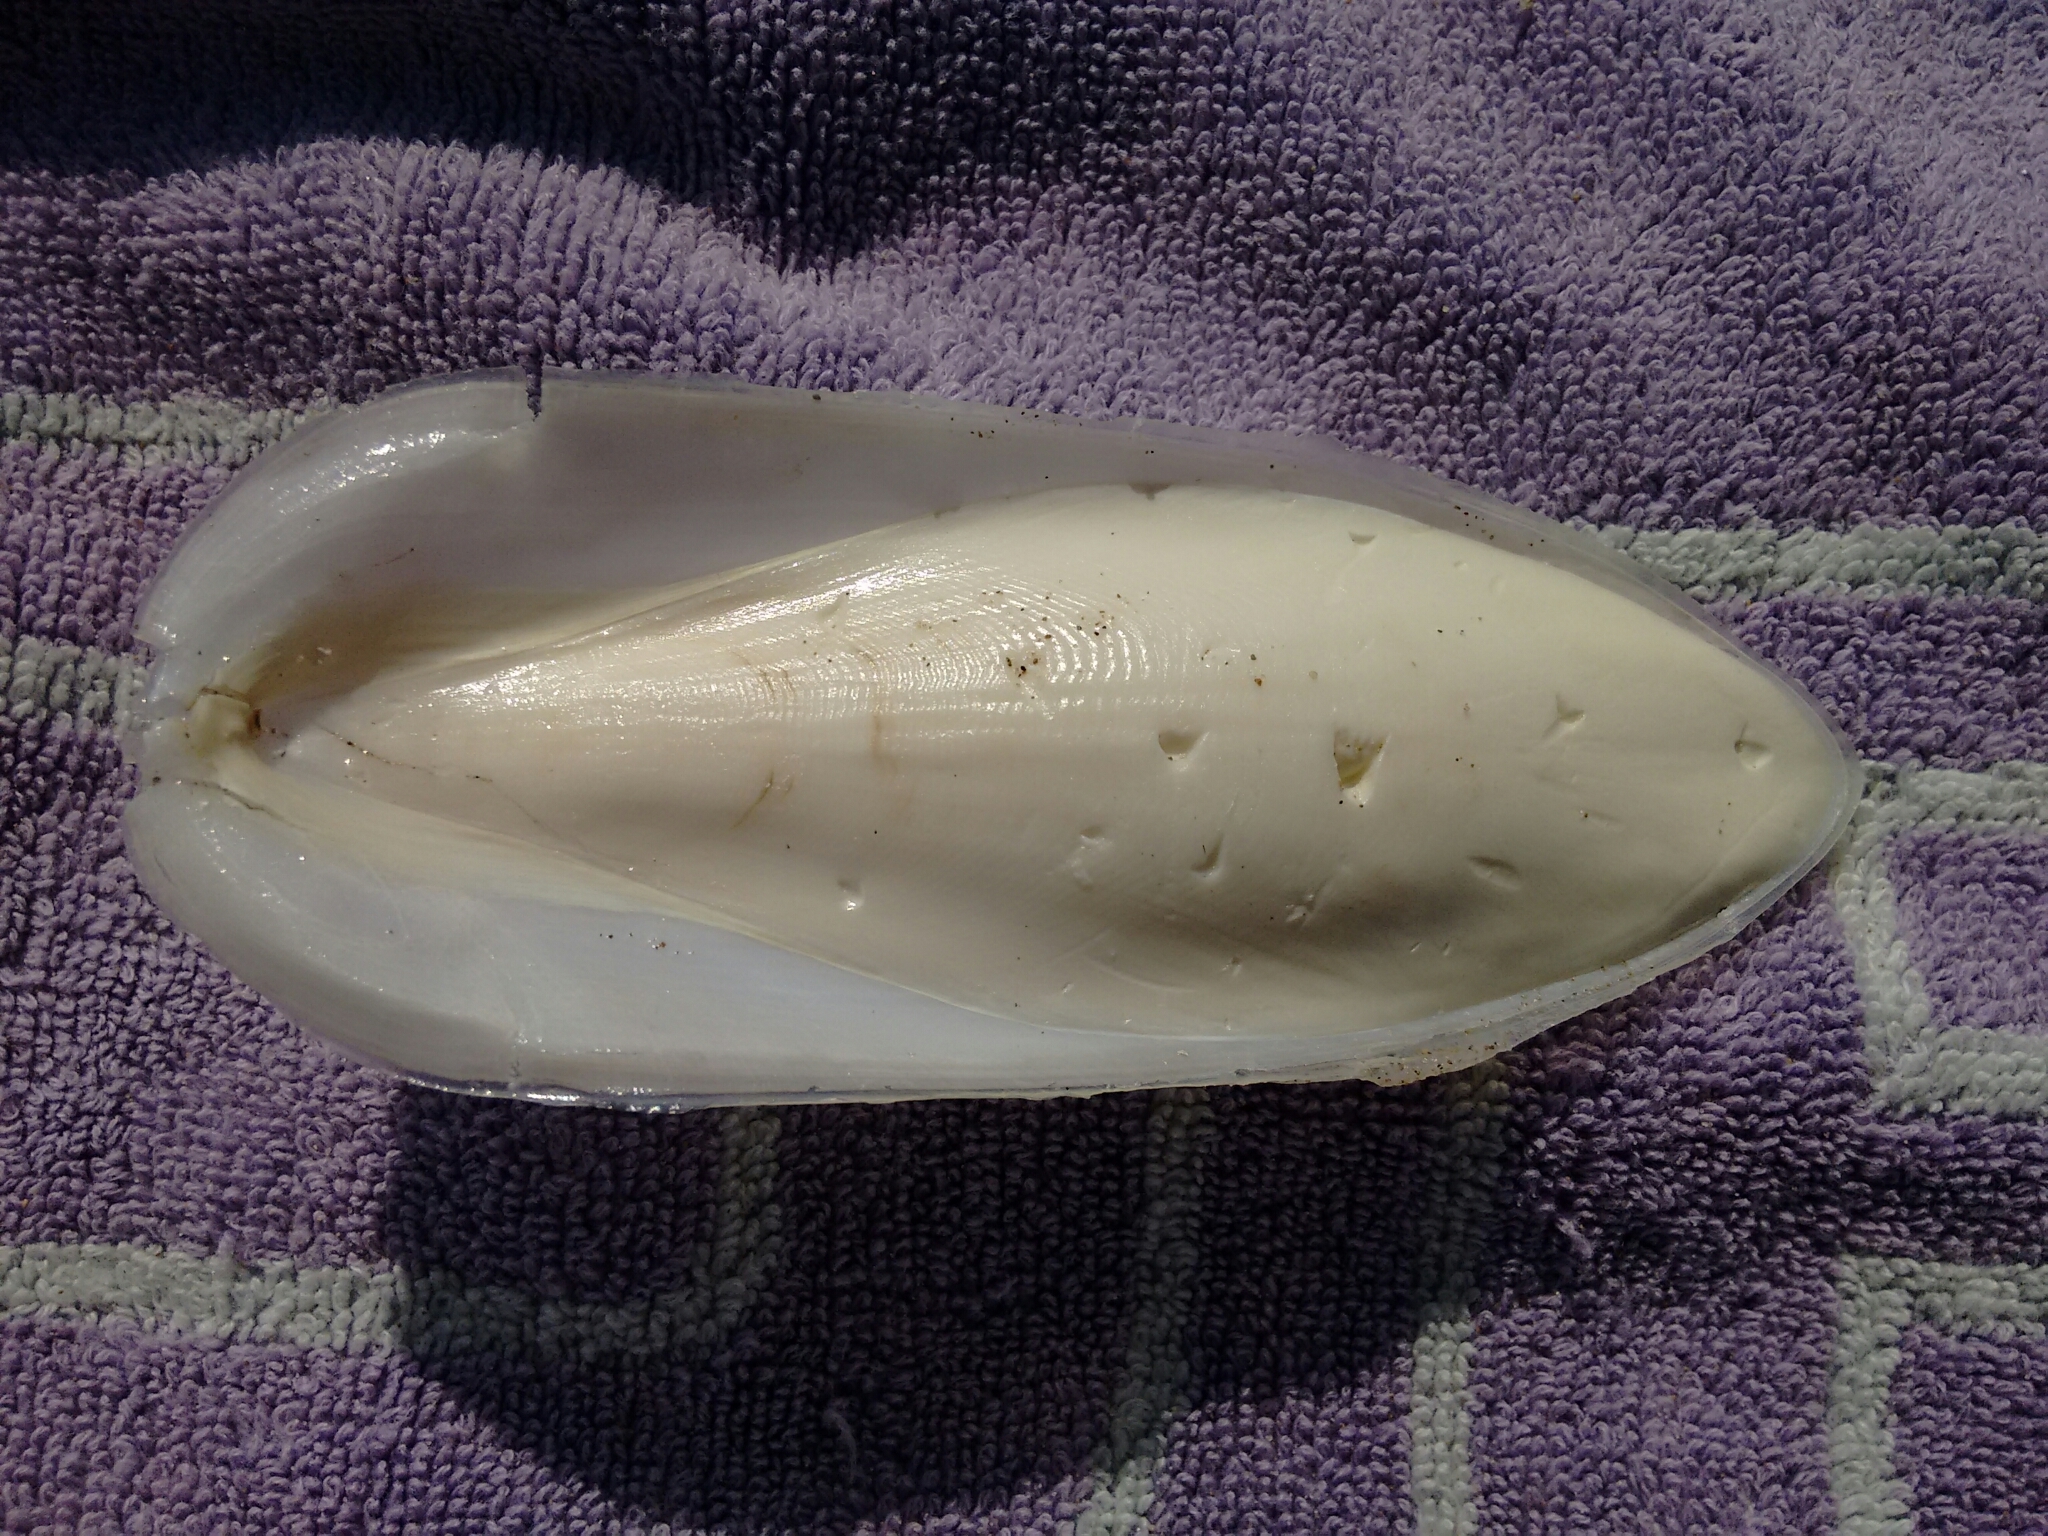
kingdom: Animalia
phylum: Mollusca
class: Cephalopoda
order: Sepiida
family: Sepiidae
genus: Sepia
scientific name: Sepia officinalis
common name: Common cuttlefish
